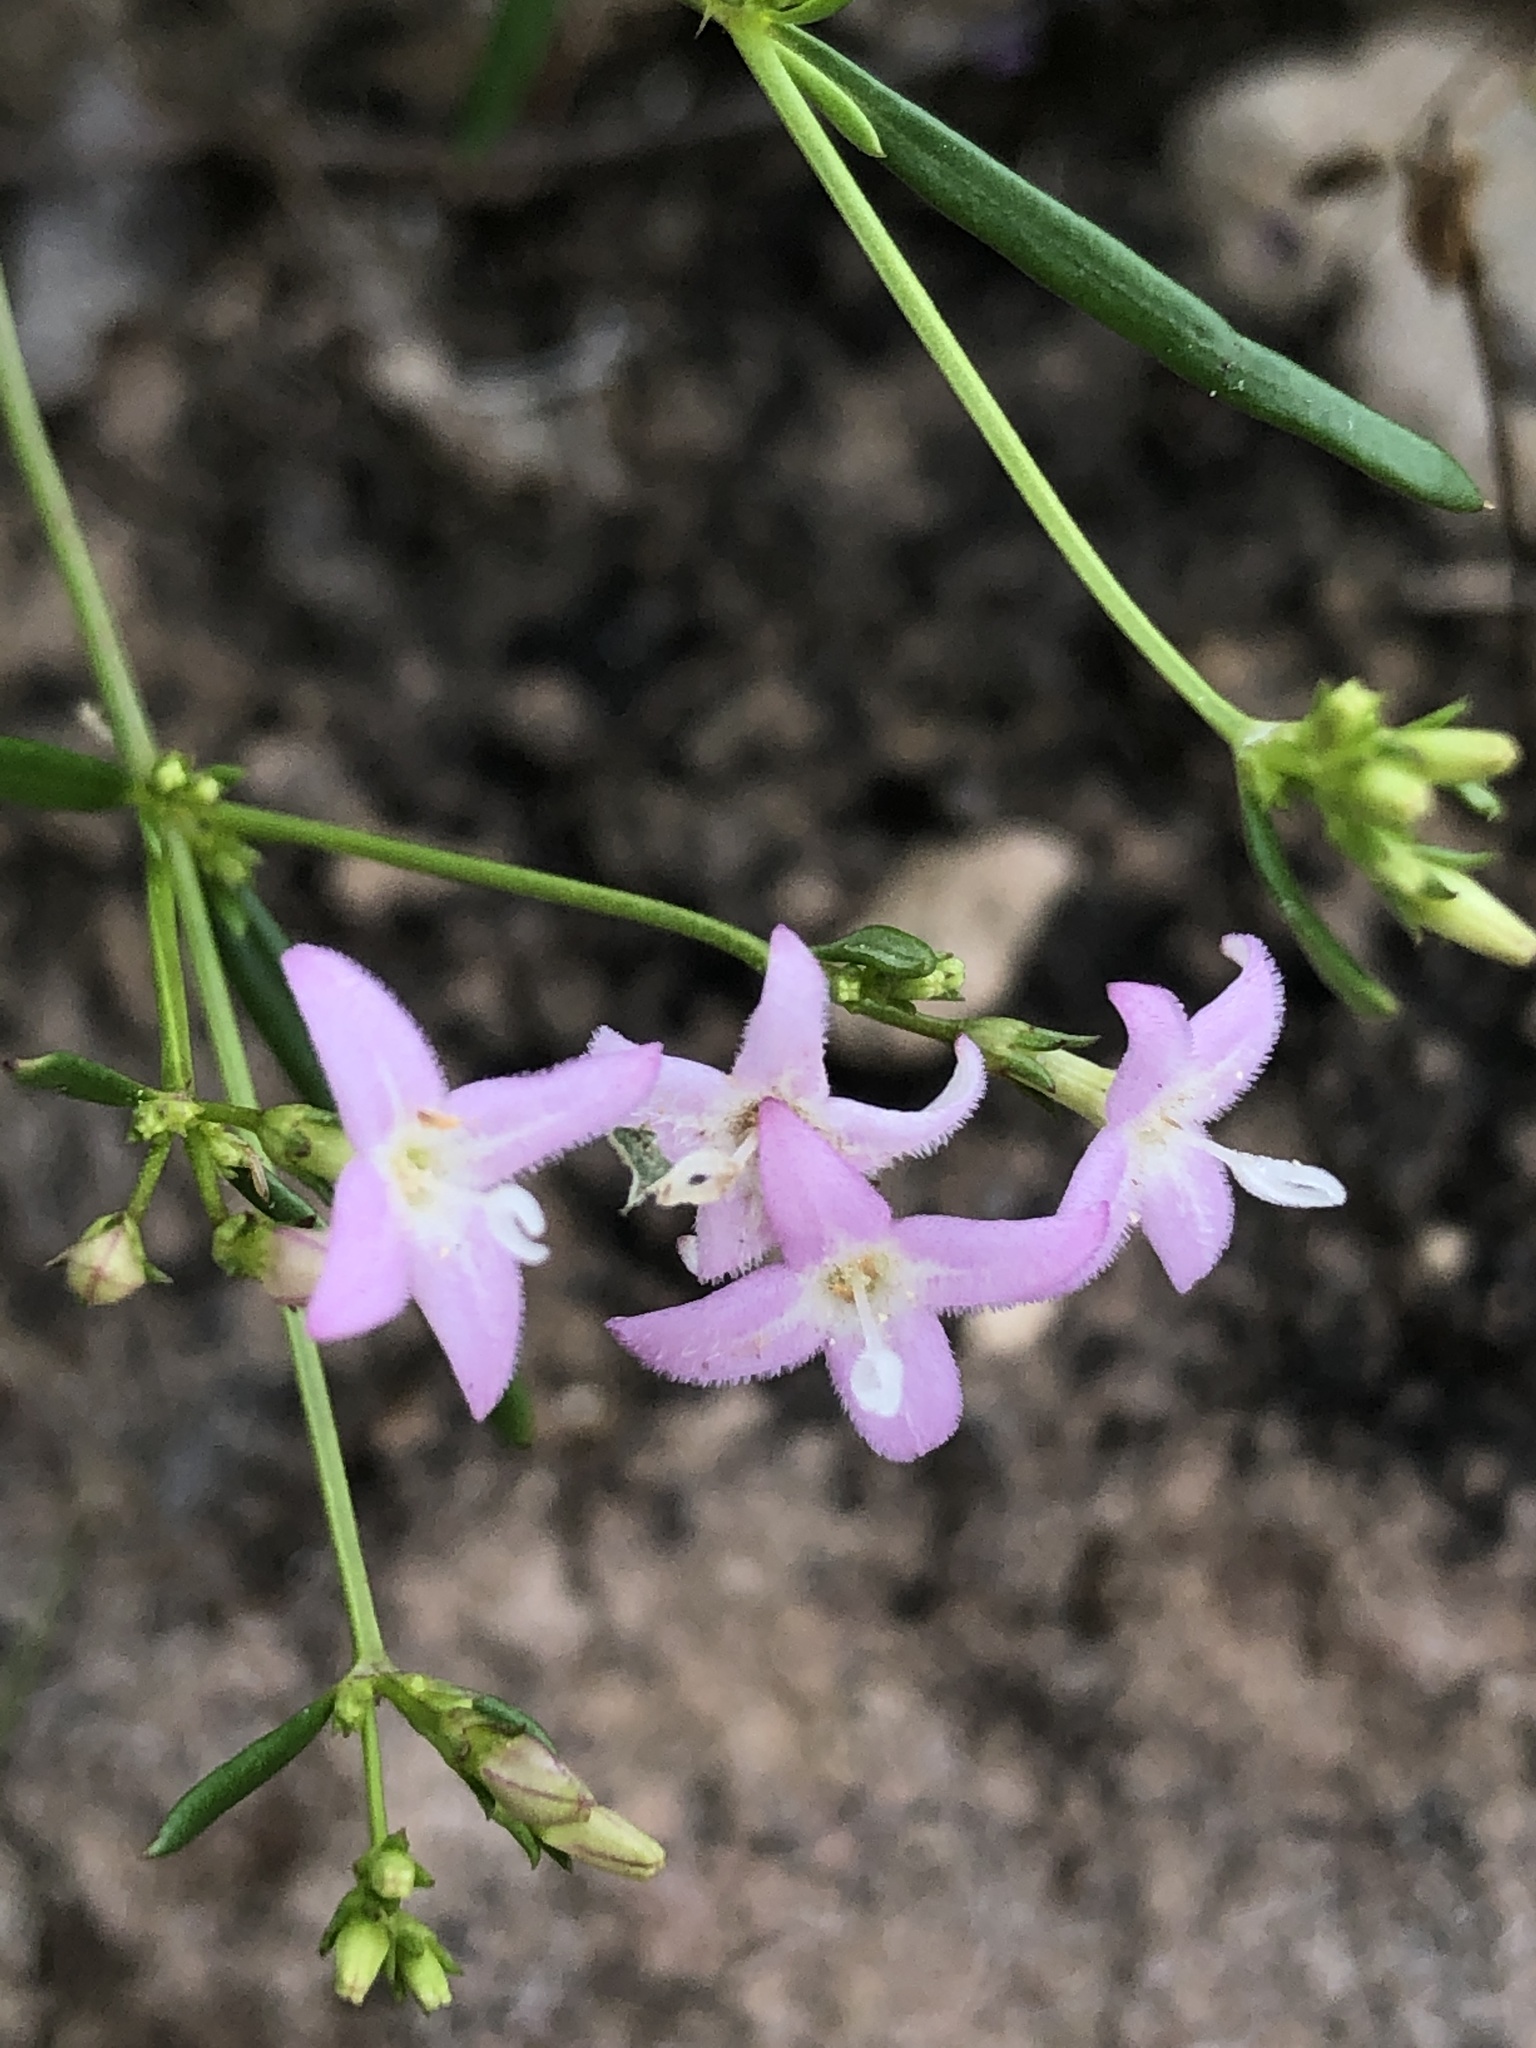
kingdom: Plantae
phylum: Tracheophyta
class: Magnoliopsida
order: Gentianales
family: Rubiaceae
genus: Stenaria
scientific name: Stenaria nigricans
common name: Diamondflowers
